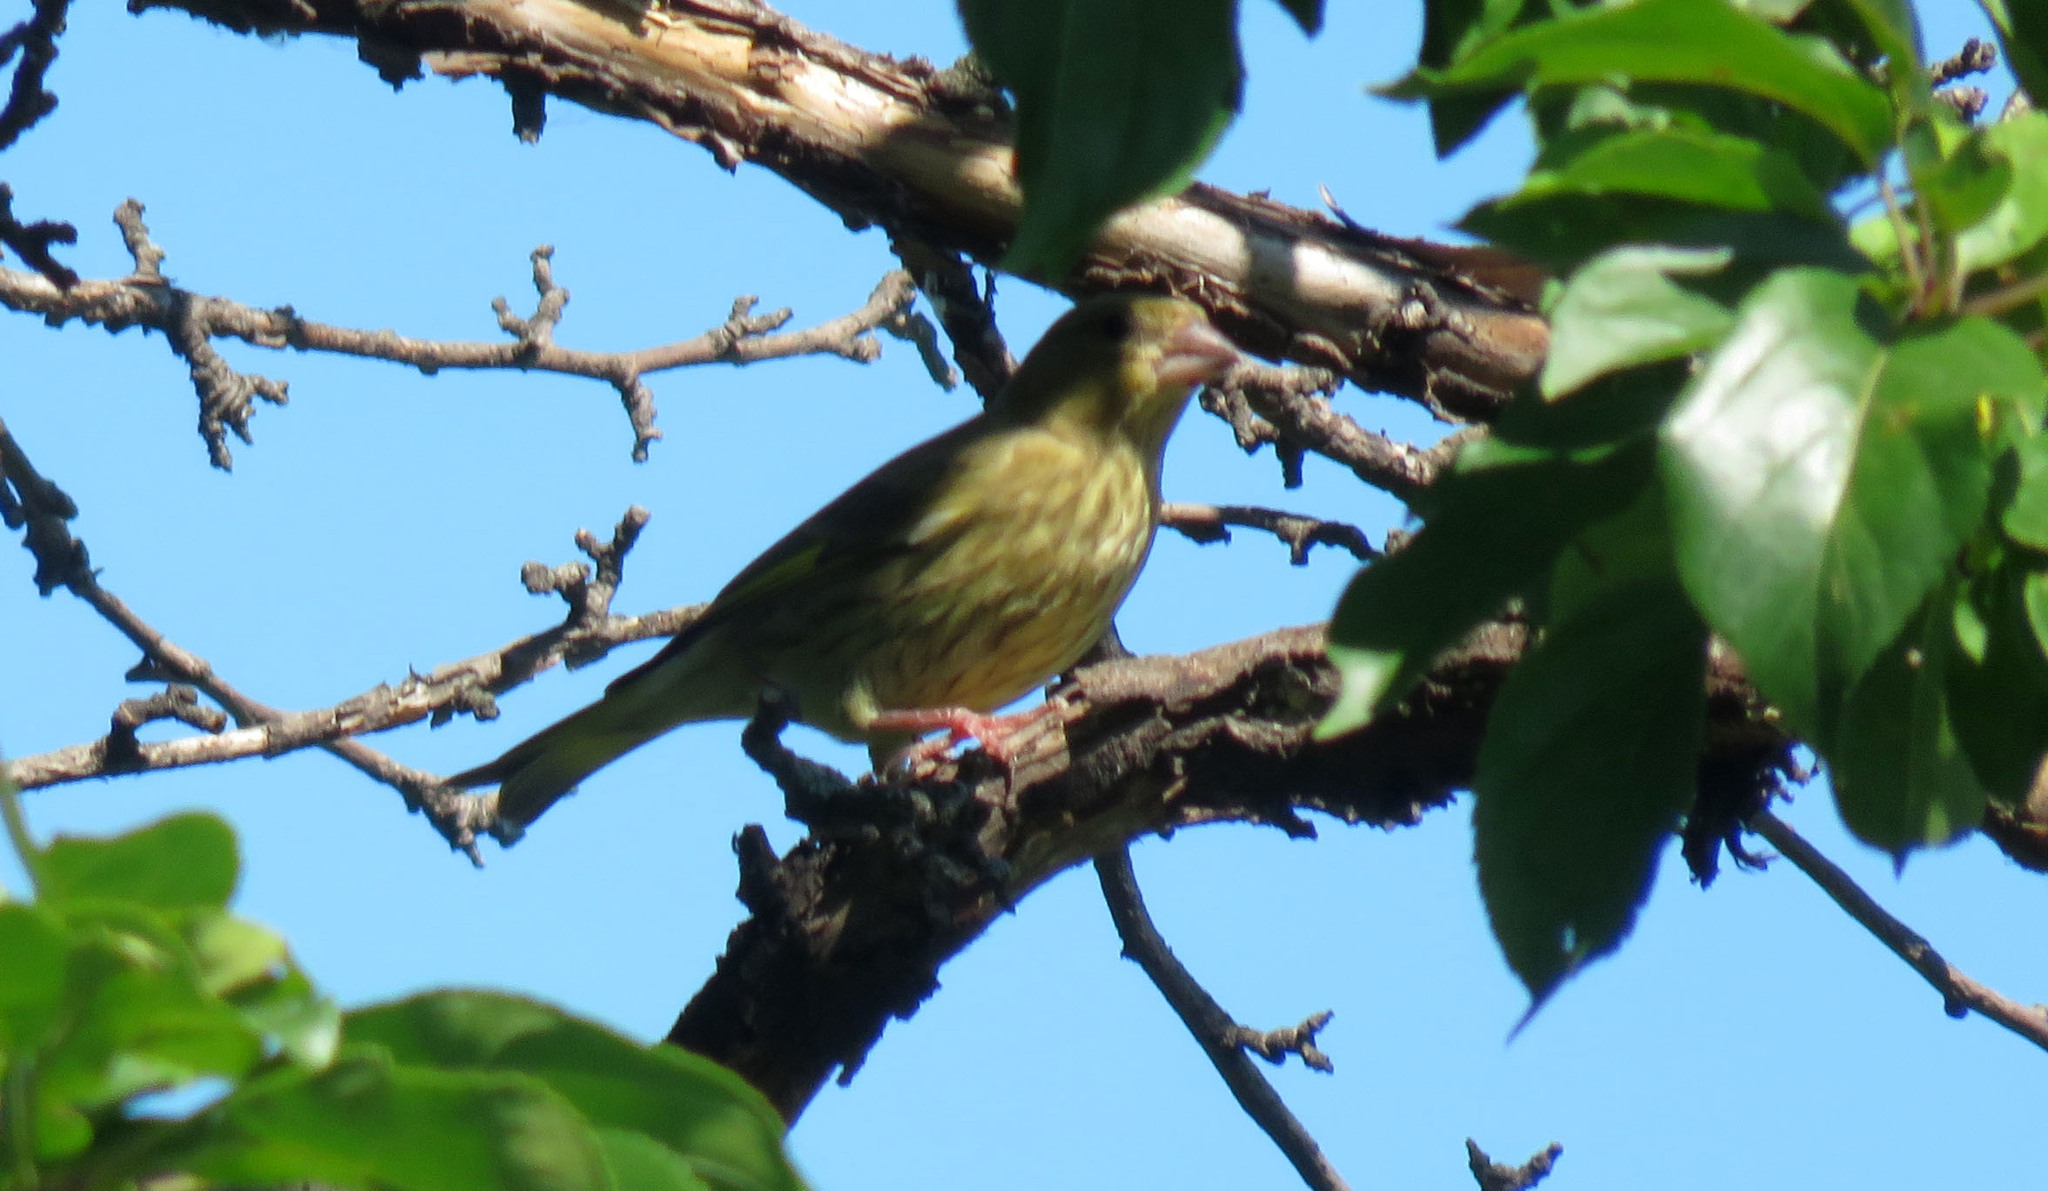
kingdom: Plantae
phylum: Tracheophyta
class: Liliopsida
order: Poales
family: Poaceae
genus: Chloris
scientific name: Chloris chloris
